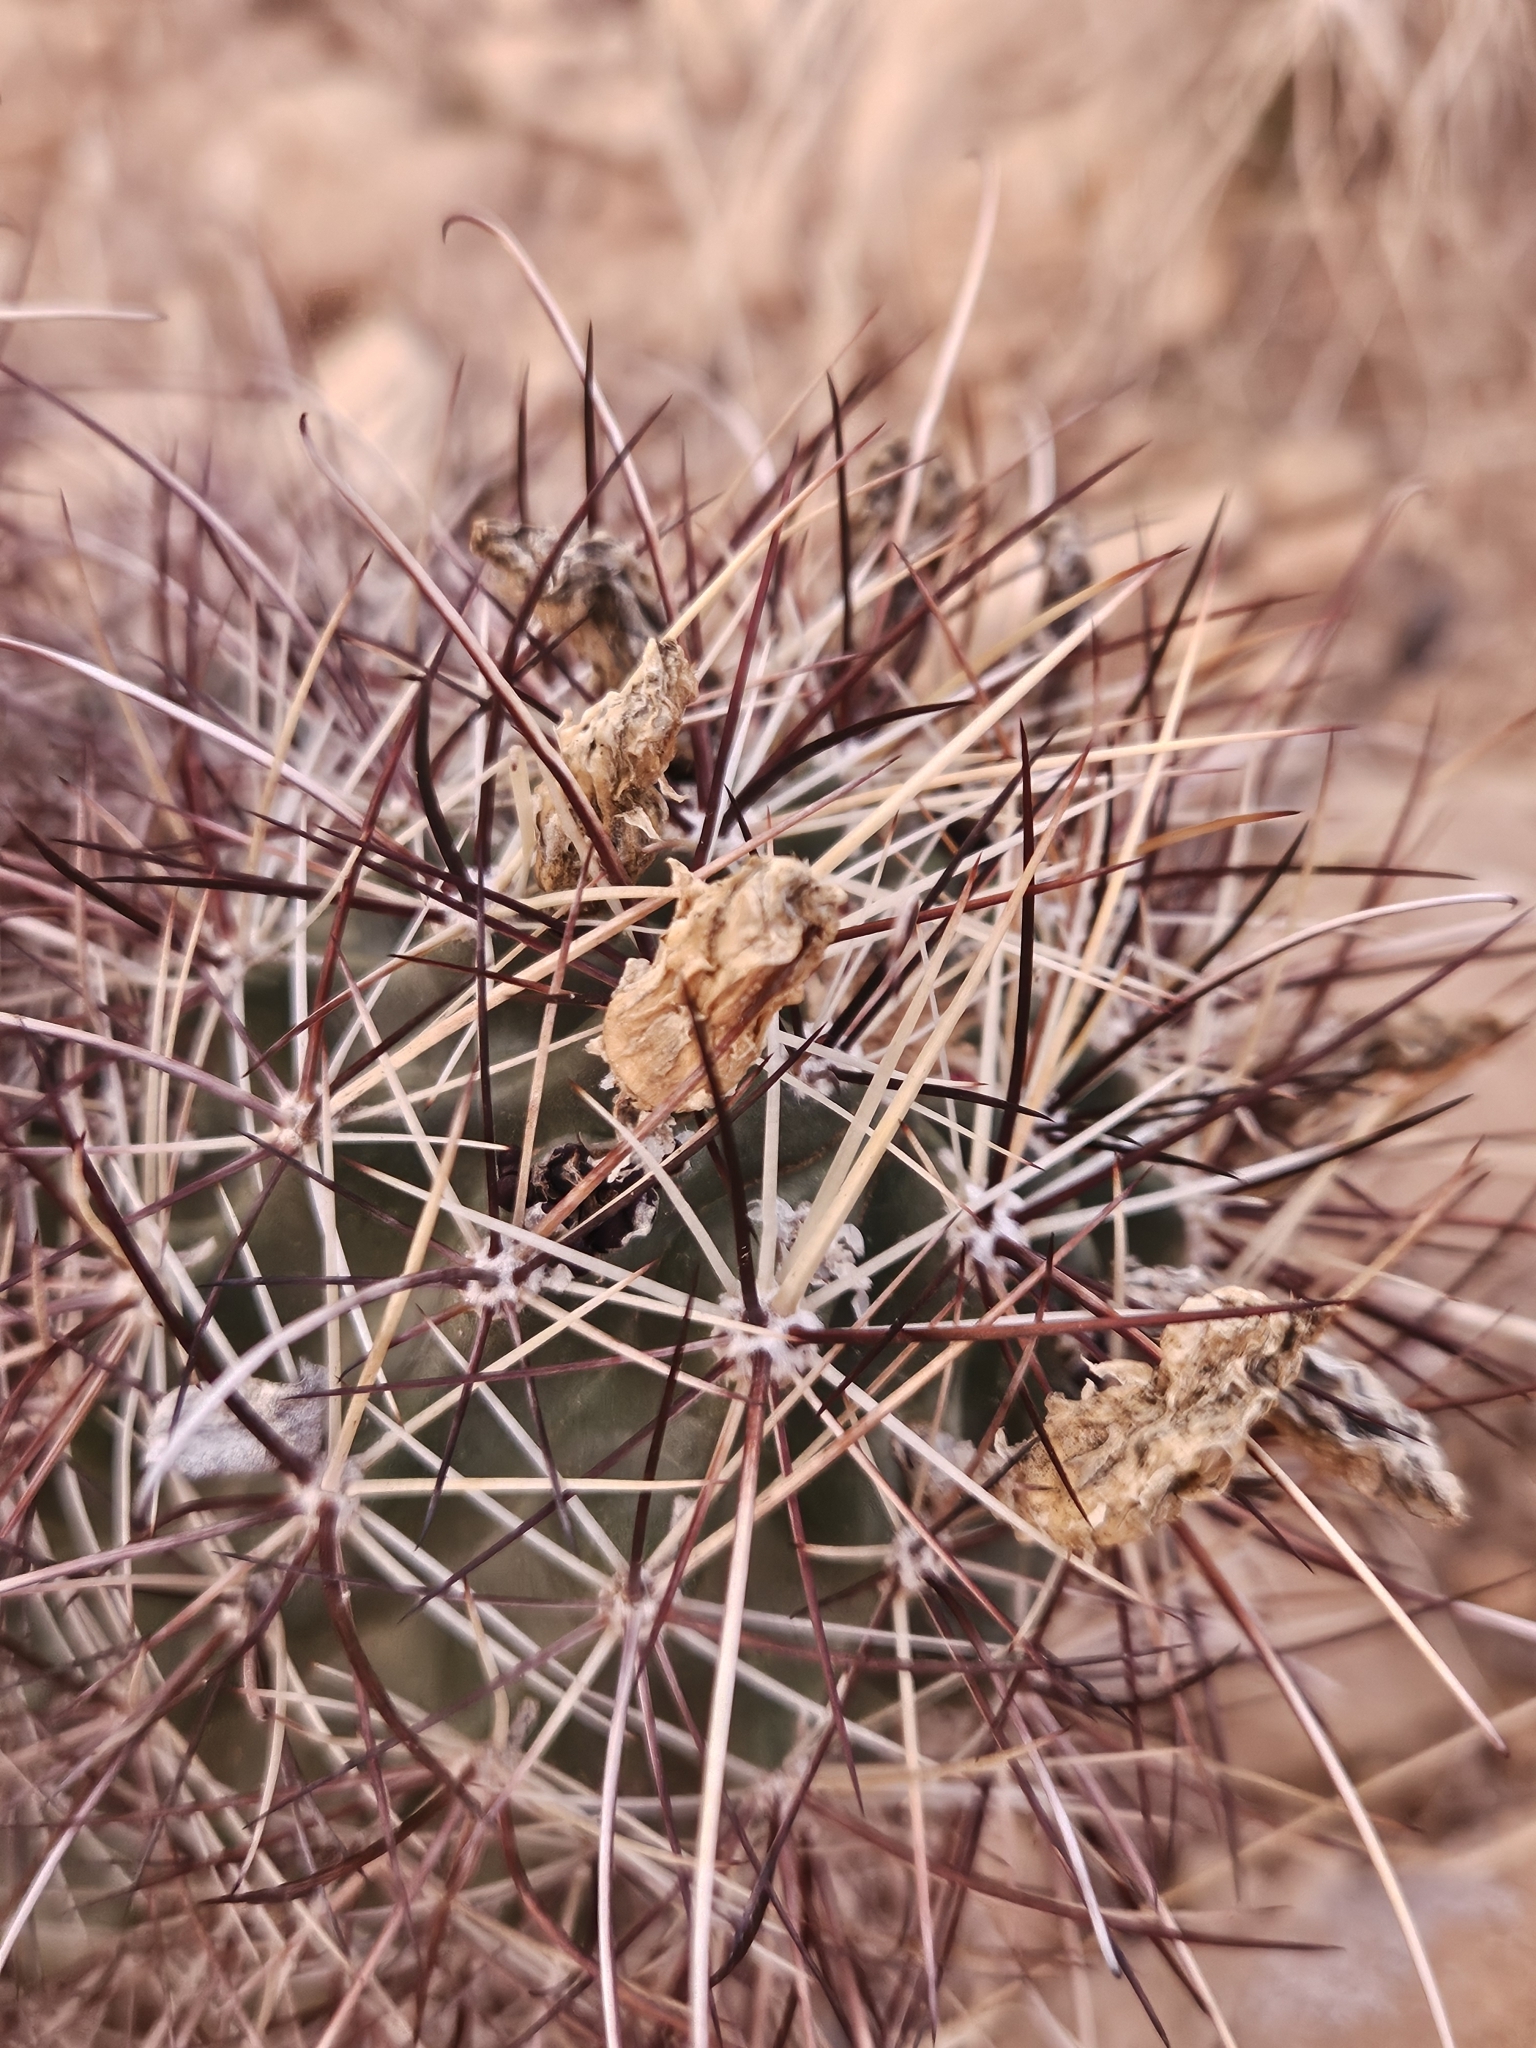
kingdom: Plantae
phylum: Tracheophyta
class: Magnoliopsida
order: Caryophyllales
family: Cactaceae
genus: Sclerocactus
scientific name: Sclerocactus parviflorus
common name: Small-flower fishhook cactus
